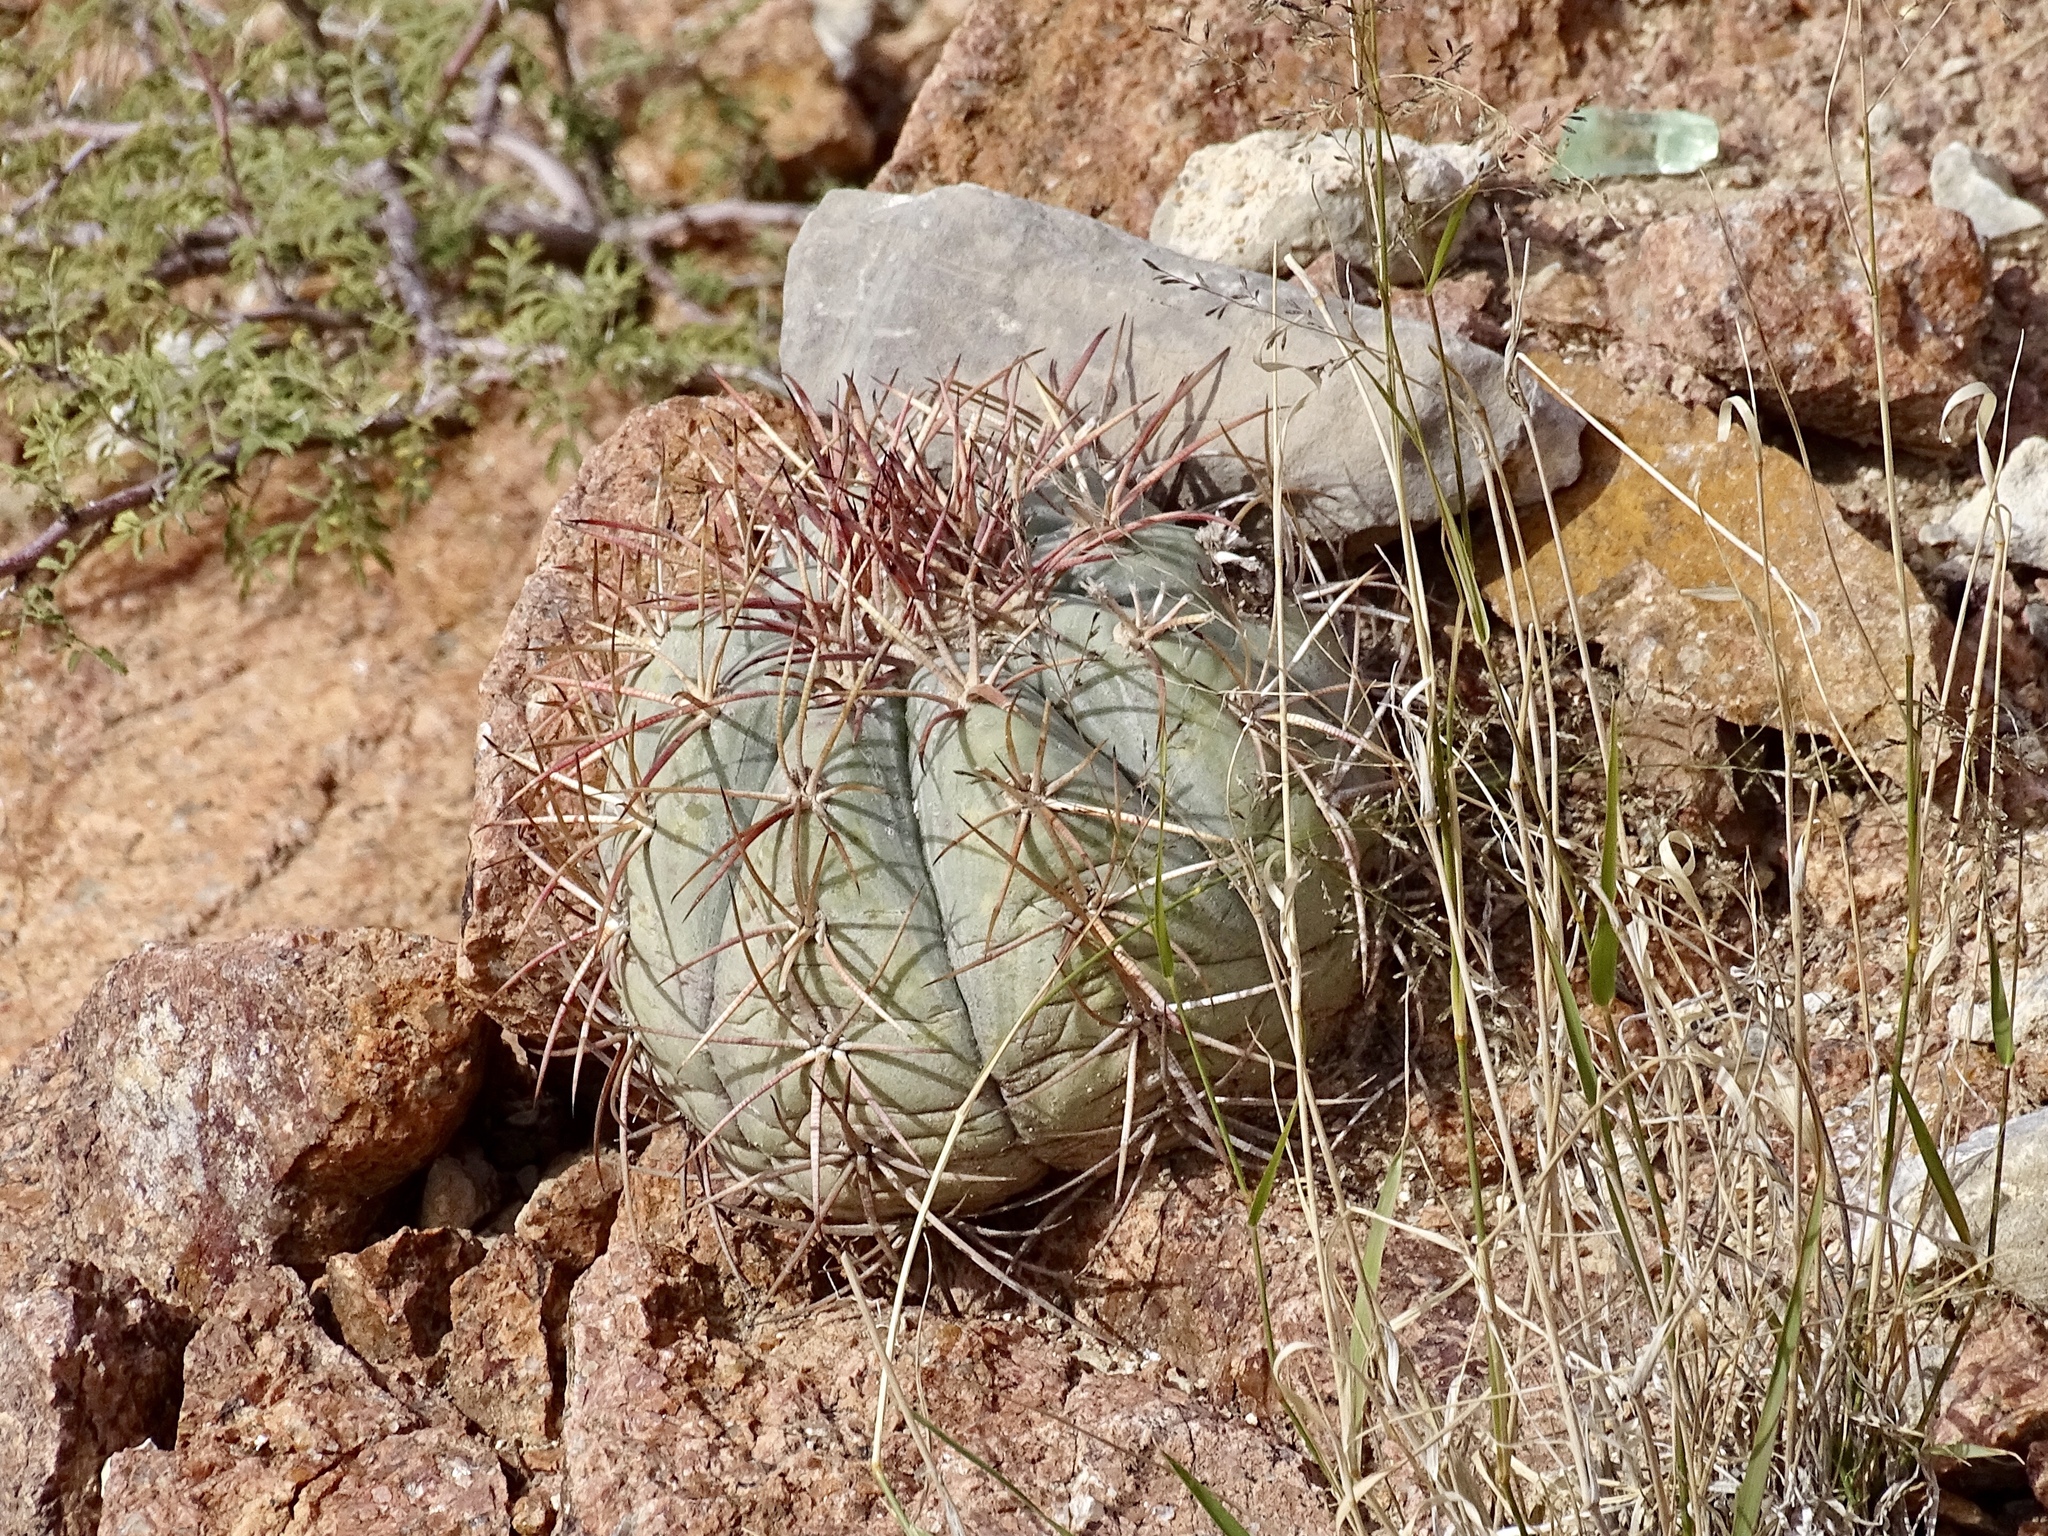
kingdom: Plantae
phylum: Tracheophyta
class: Magnoliopsida
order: Caryophyllales
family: Cactaceae
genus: Echinocactus
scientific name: Echinocactus horizonthalonius
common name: Devilshead
